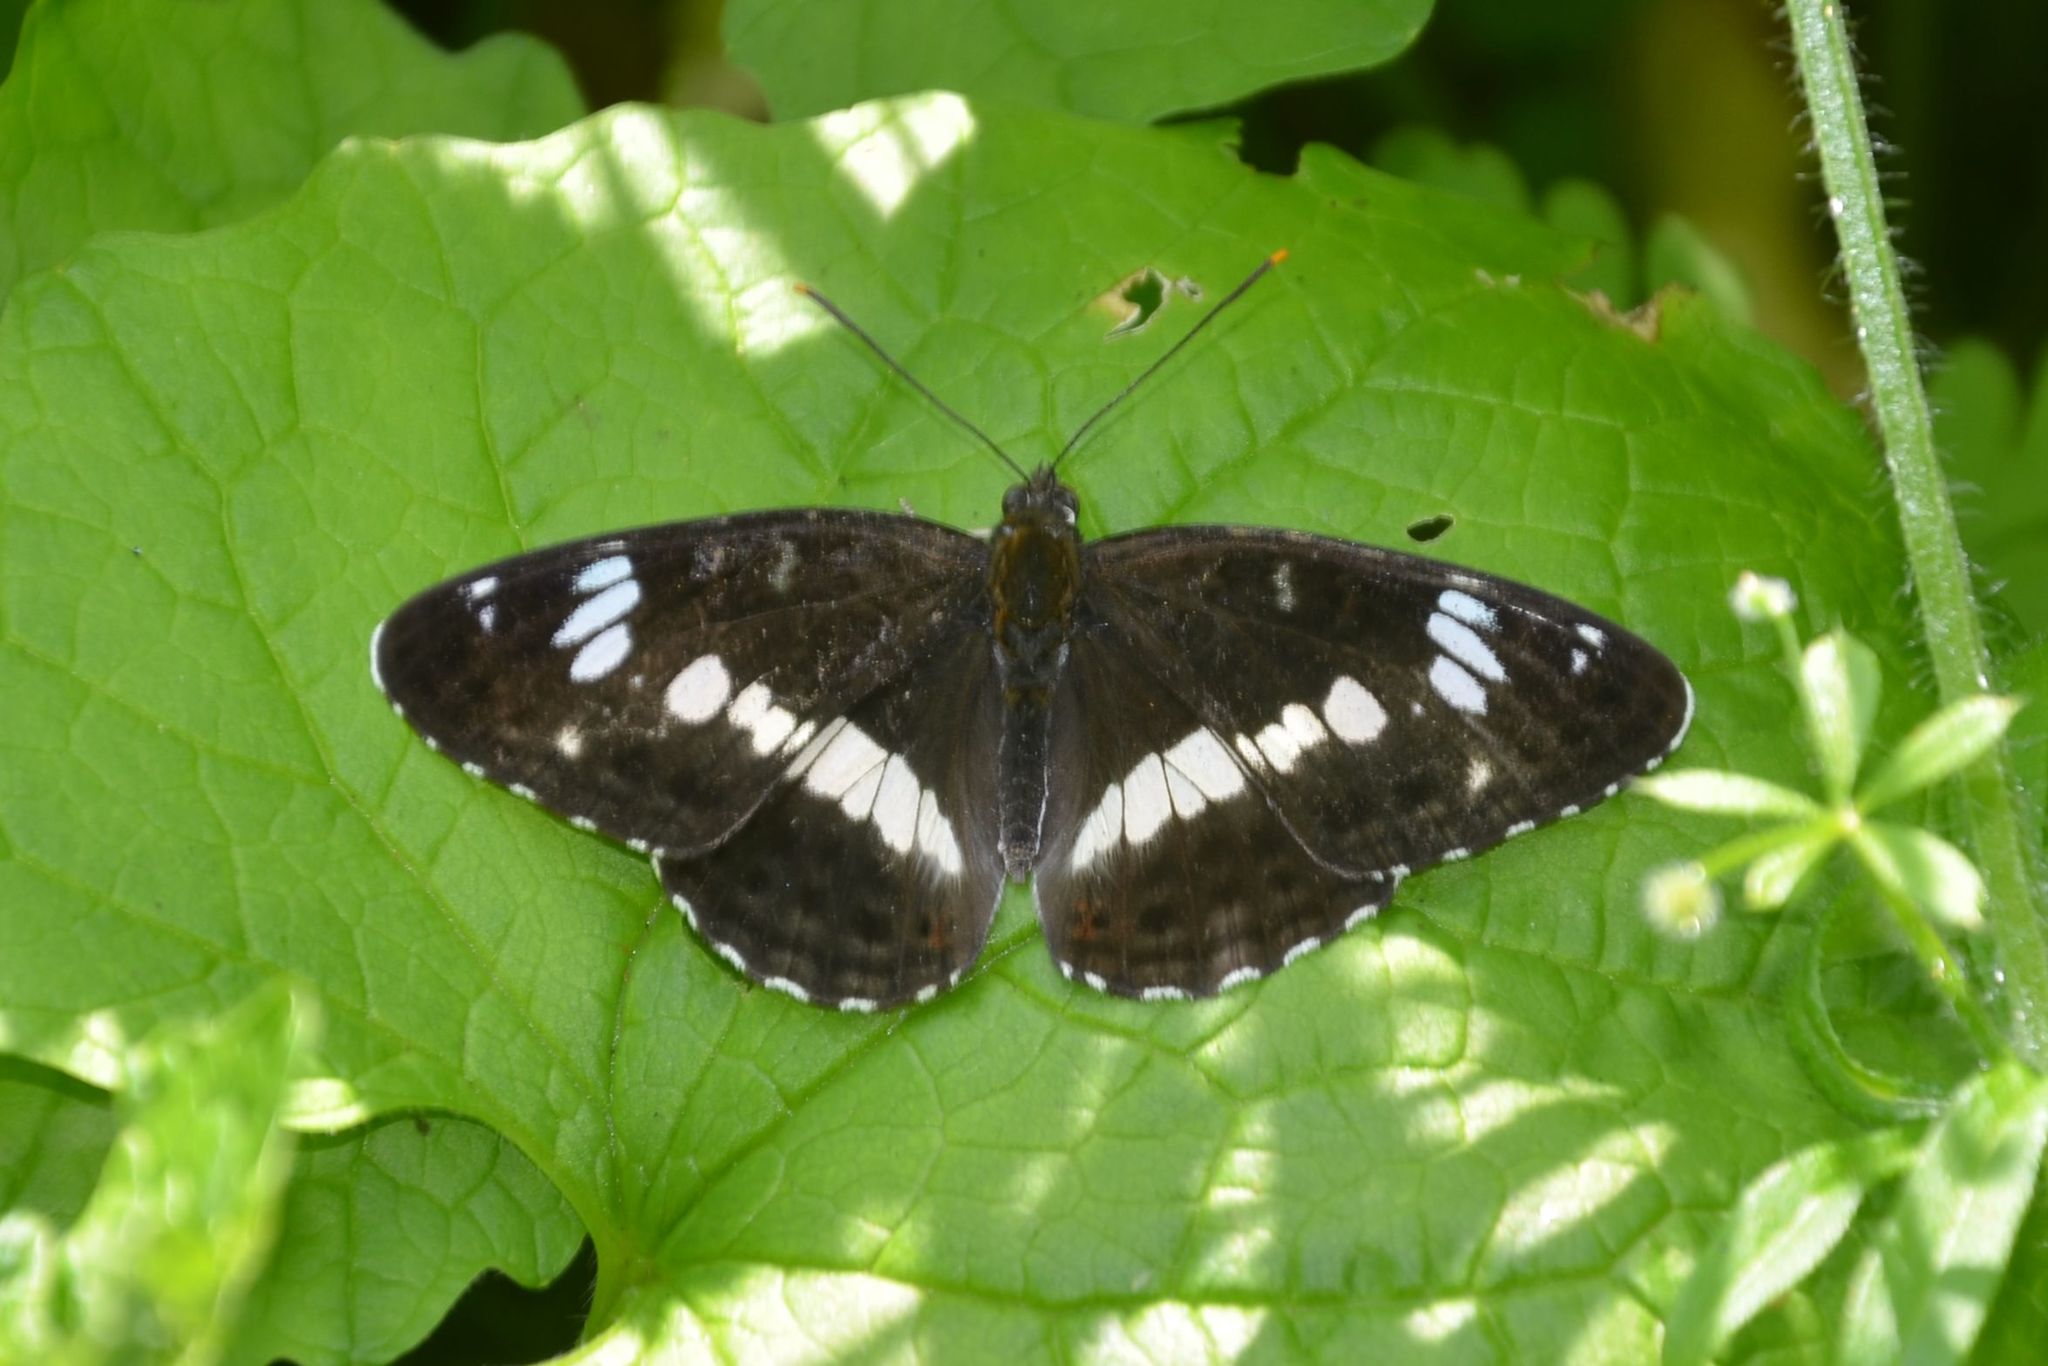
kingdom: Animalia
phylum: Arthropoda
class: Insecta
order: Lepidoptera
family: Nymphalidae
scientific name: Nymphalidae
